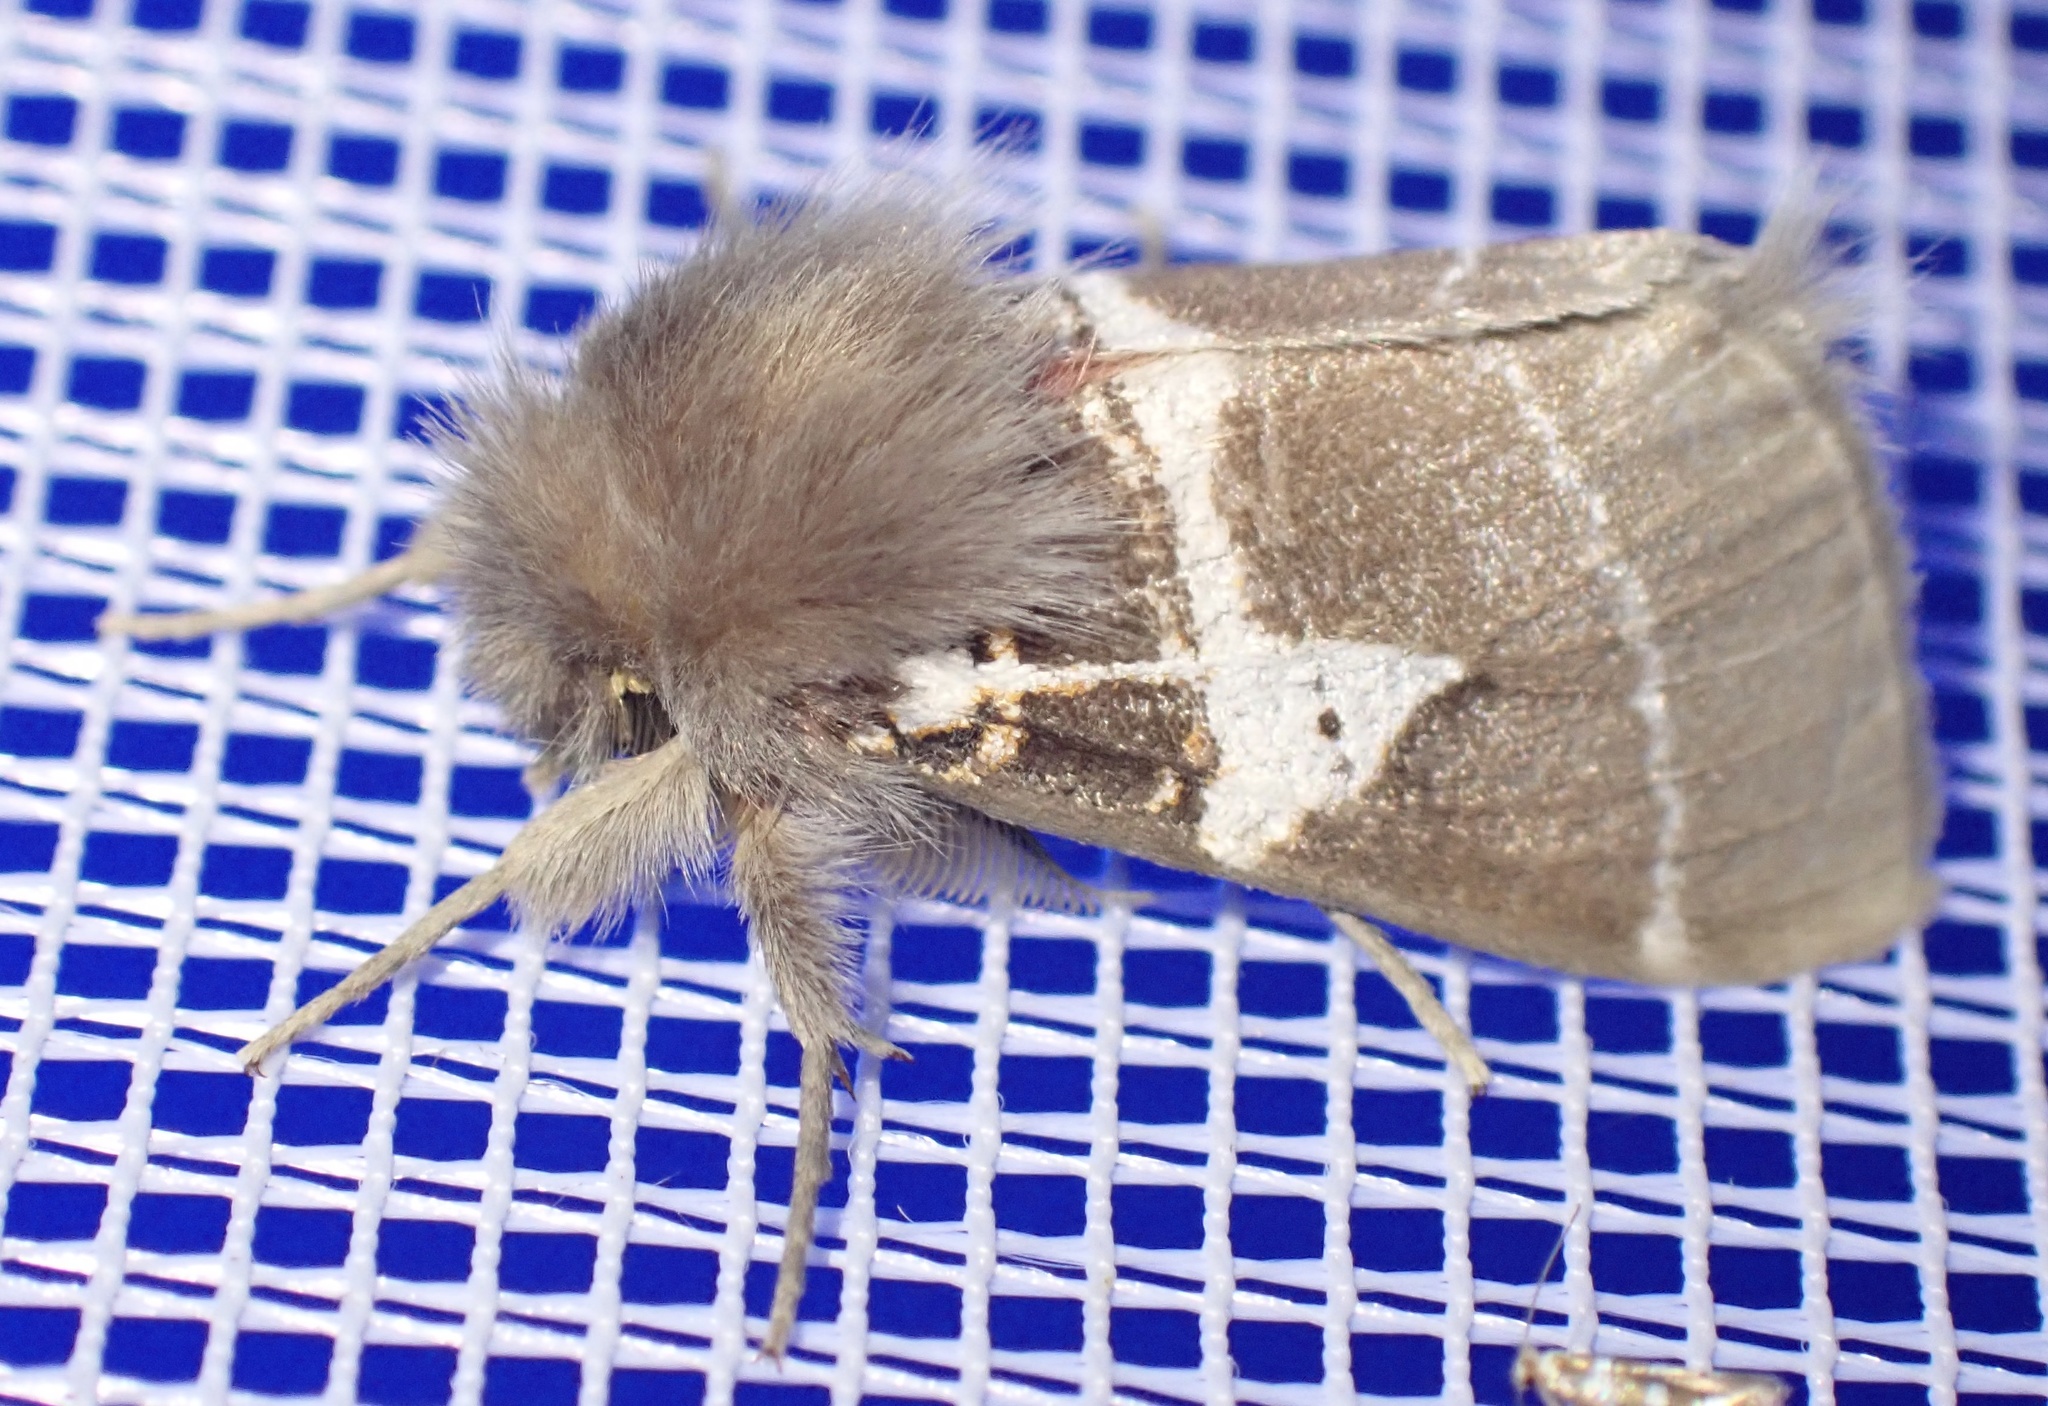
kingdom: Animalia
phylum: Arthropoda
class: Insecta
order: Lepidoptera
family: Erebidae
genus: Lymantria
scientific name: Lymantria Morasa modesta
